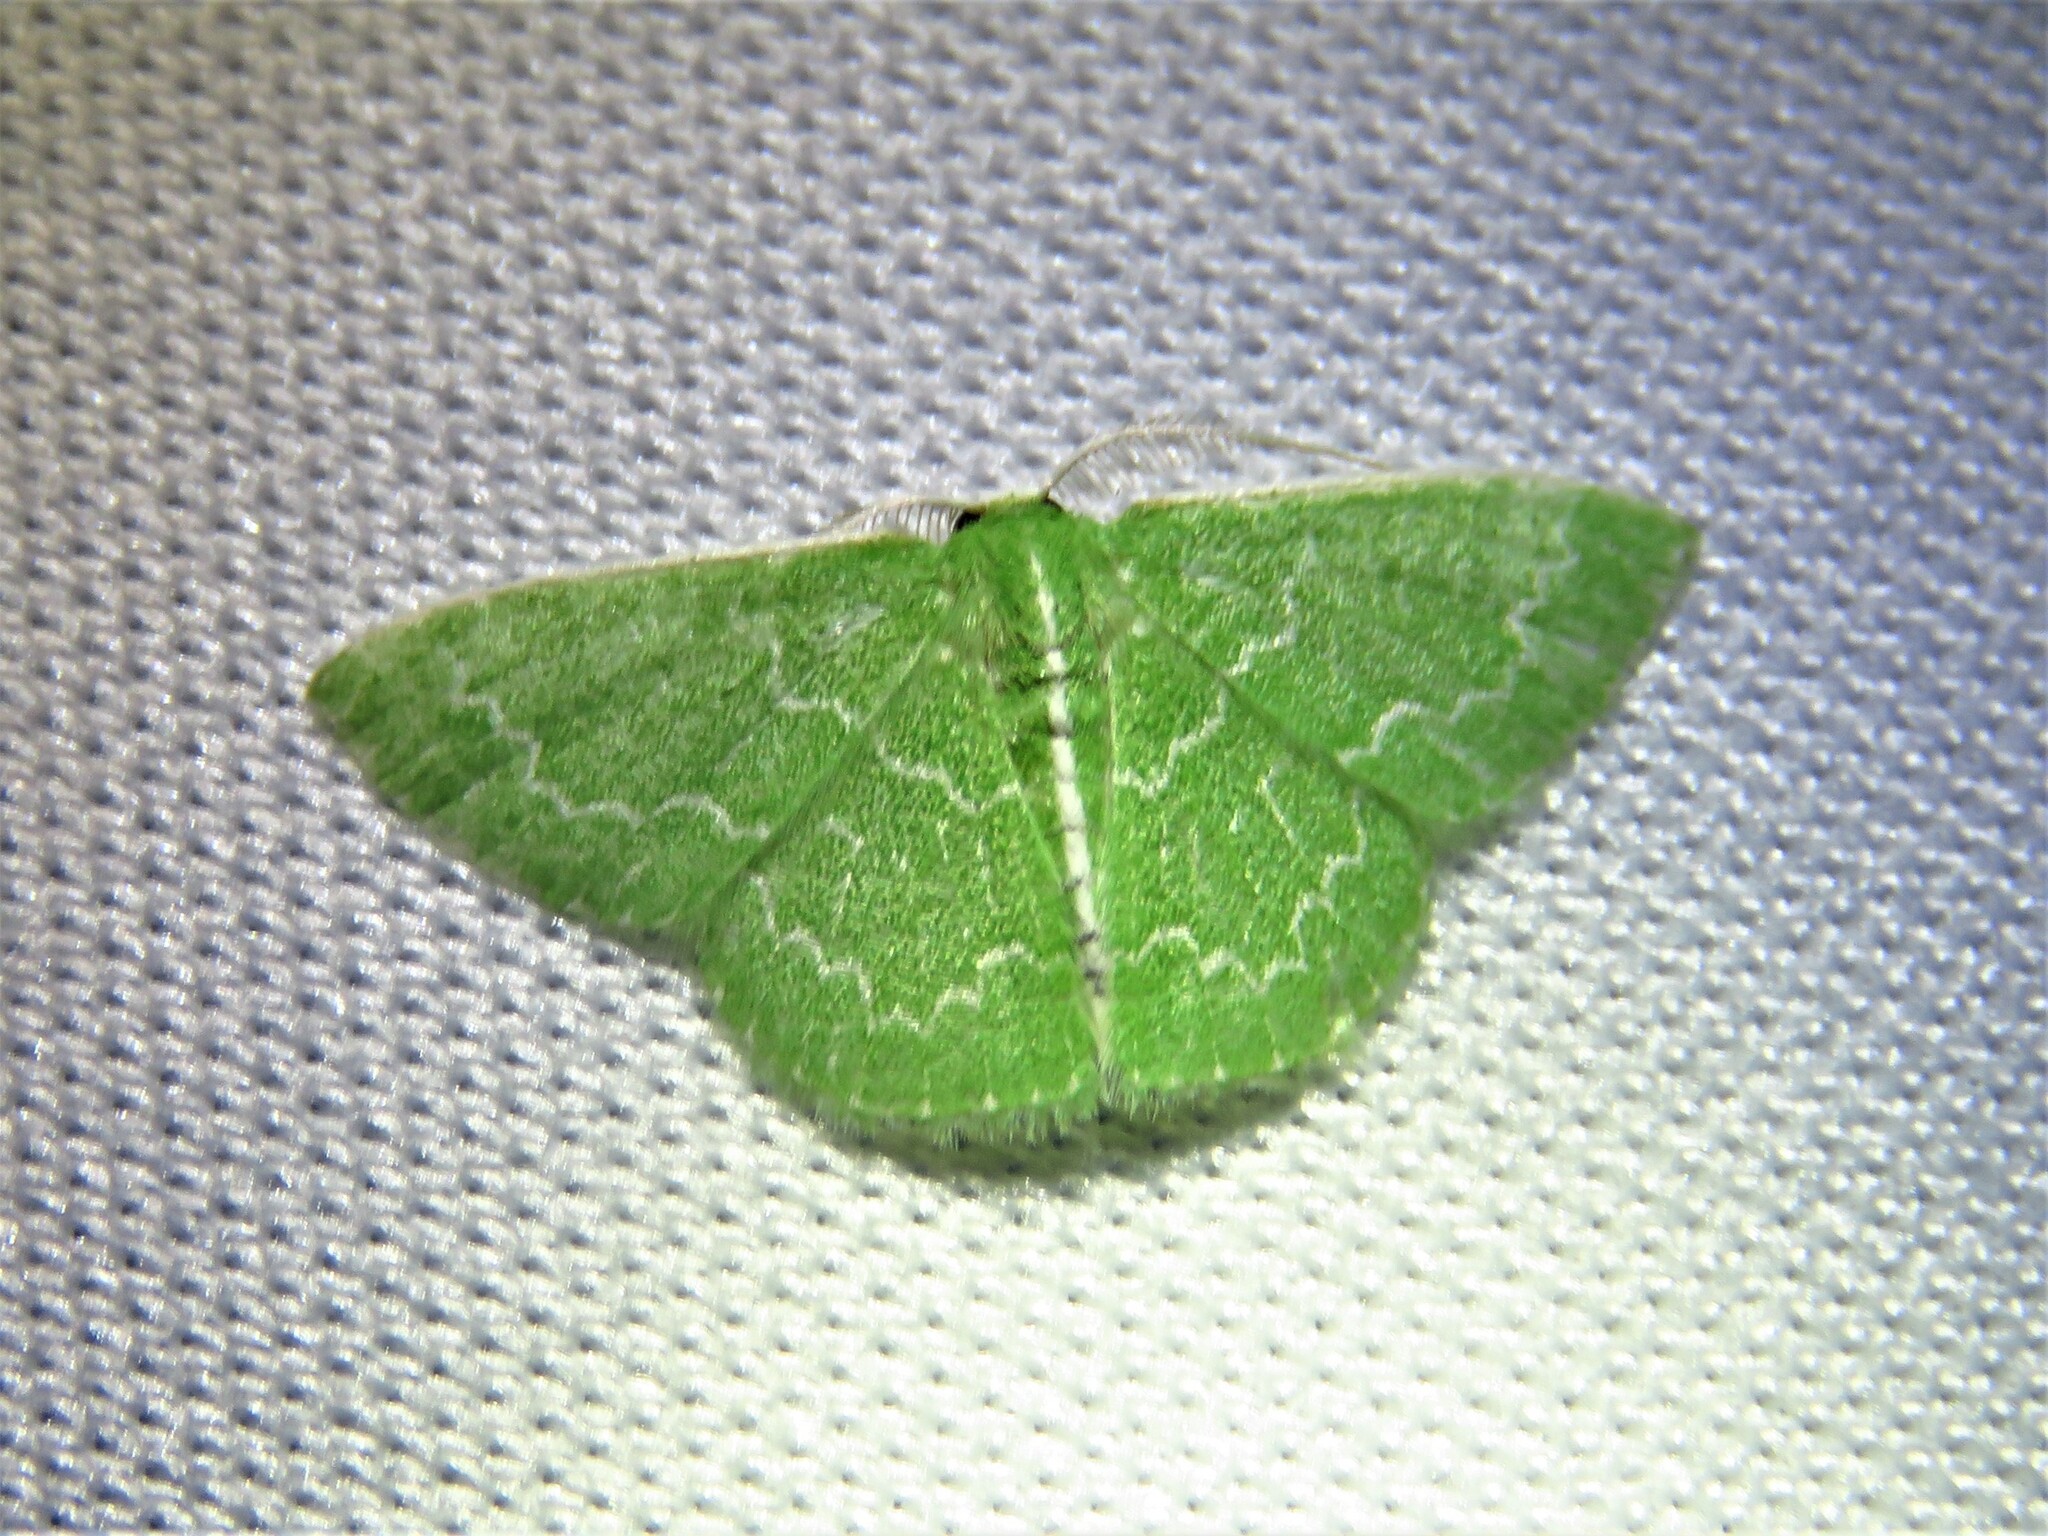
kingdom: Animalia
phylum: Arthropoda
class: Insecta
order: Lepidoptera
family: Geometridae
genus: Synchlora
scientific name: Synchlora frondaria
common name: Southern emerald
